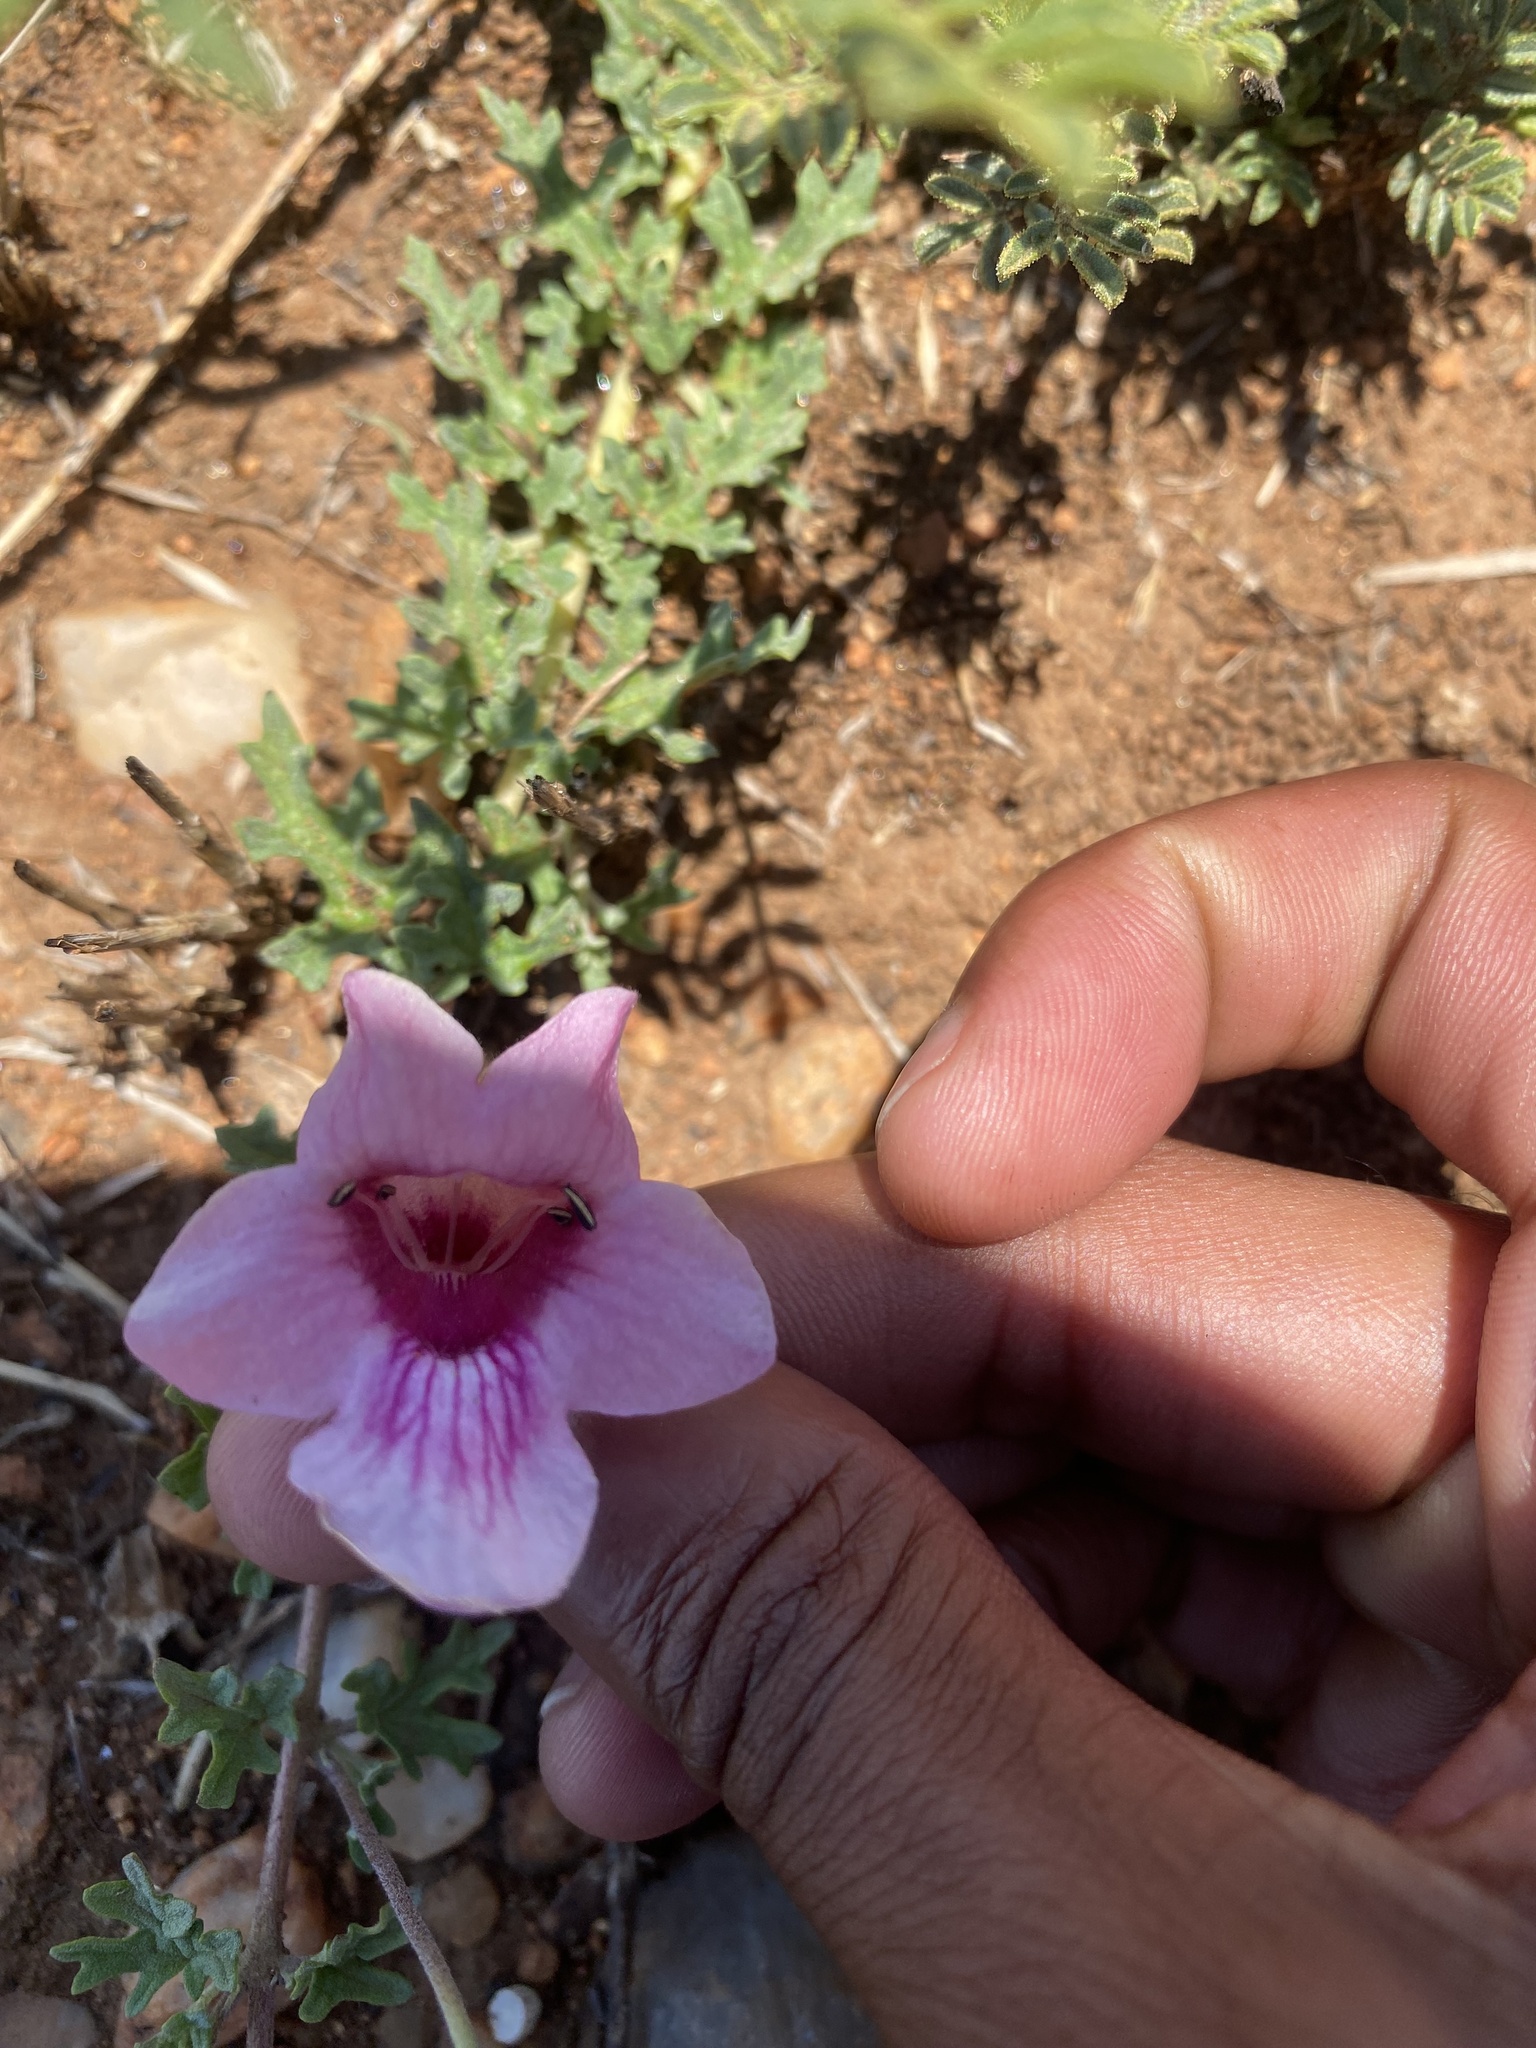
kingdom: Plantae
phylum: Tracheophyta
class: Magnoliopsida
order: Lamiales
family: Pedaliaceae
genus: Dicerocaryum
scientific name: Dicerocaryum senecioides
